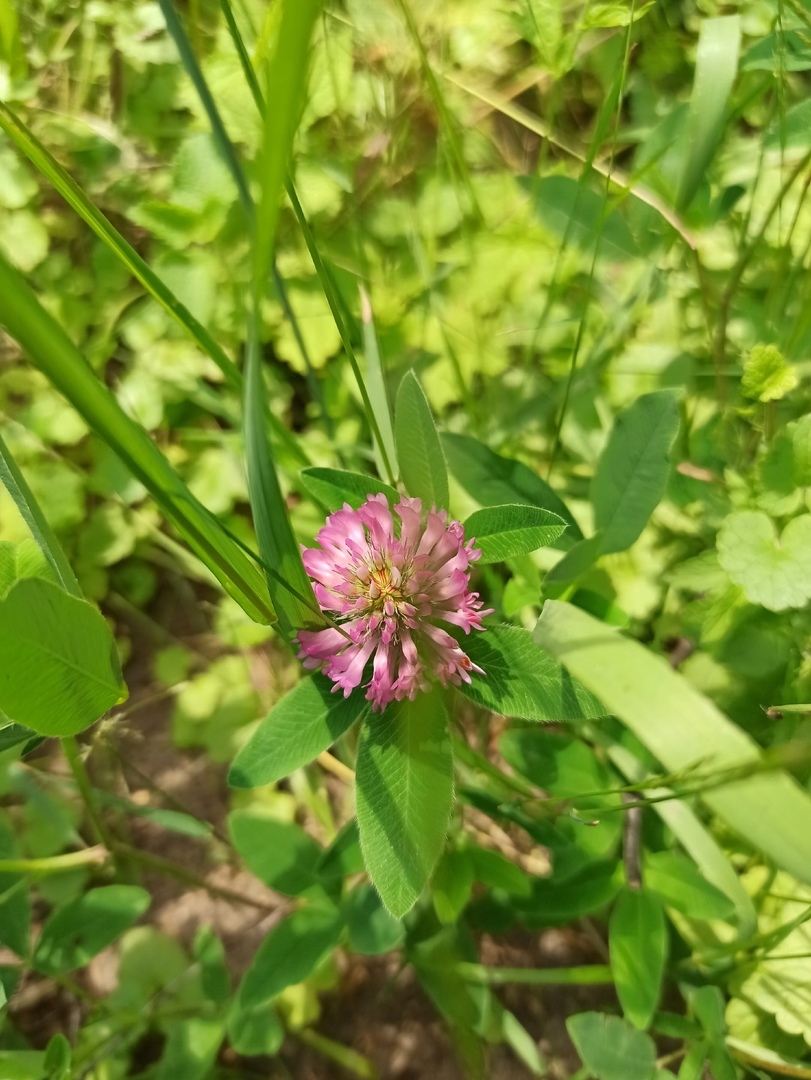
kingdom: Plantae
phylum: Tracheophyta
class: Magnoliopsida
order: Fabales
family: Fabaceae
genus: Trifolium
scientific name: Trifolium medium
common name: Zigzag clover
